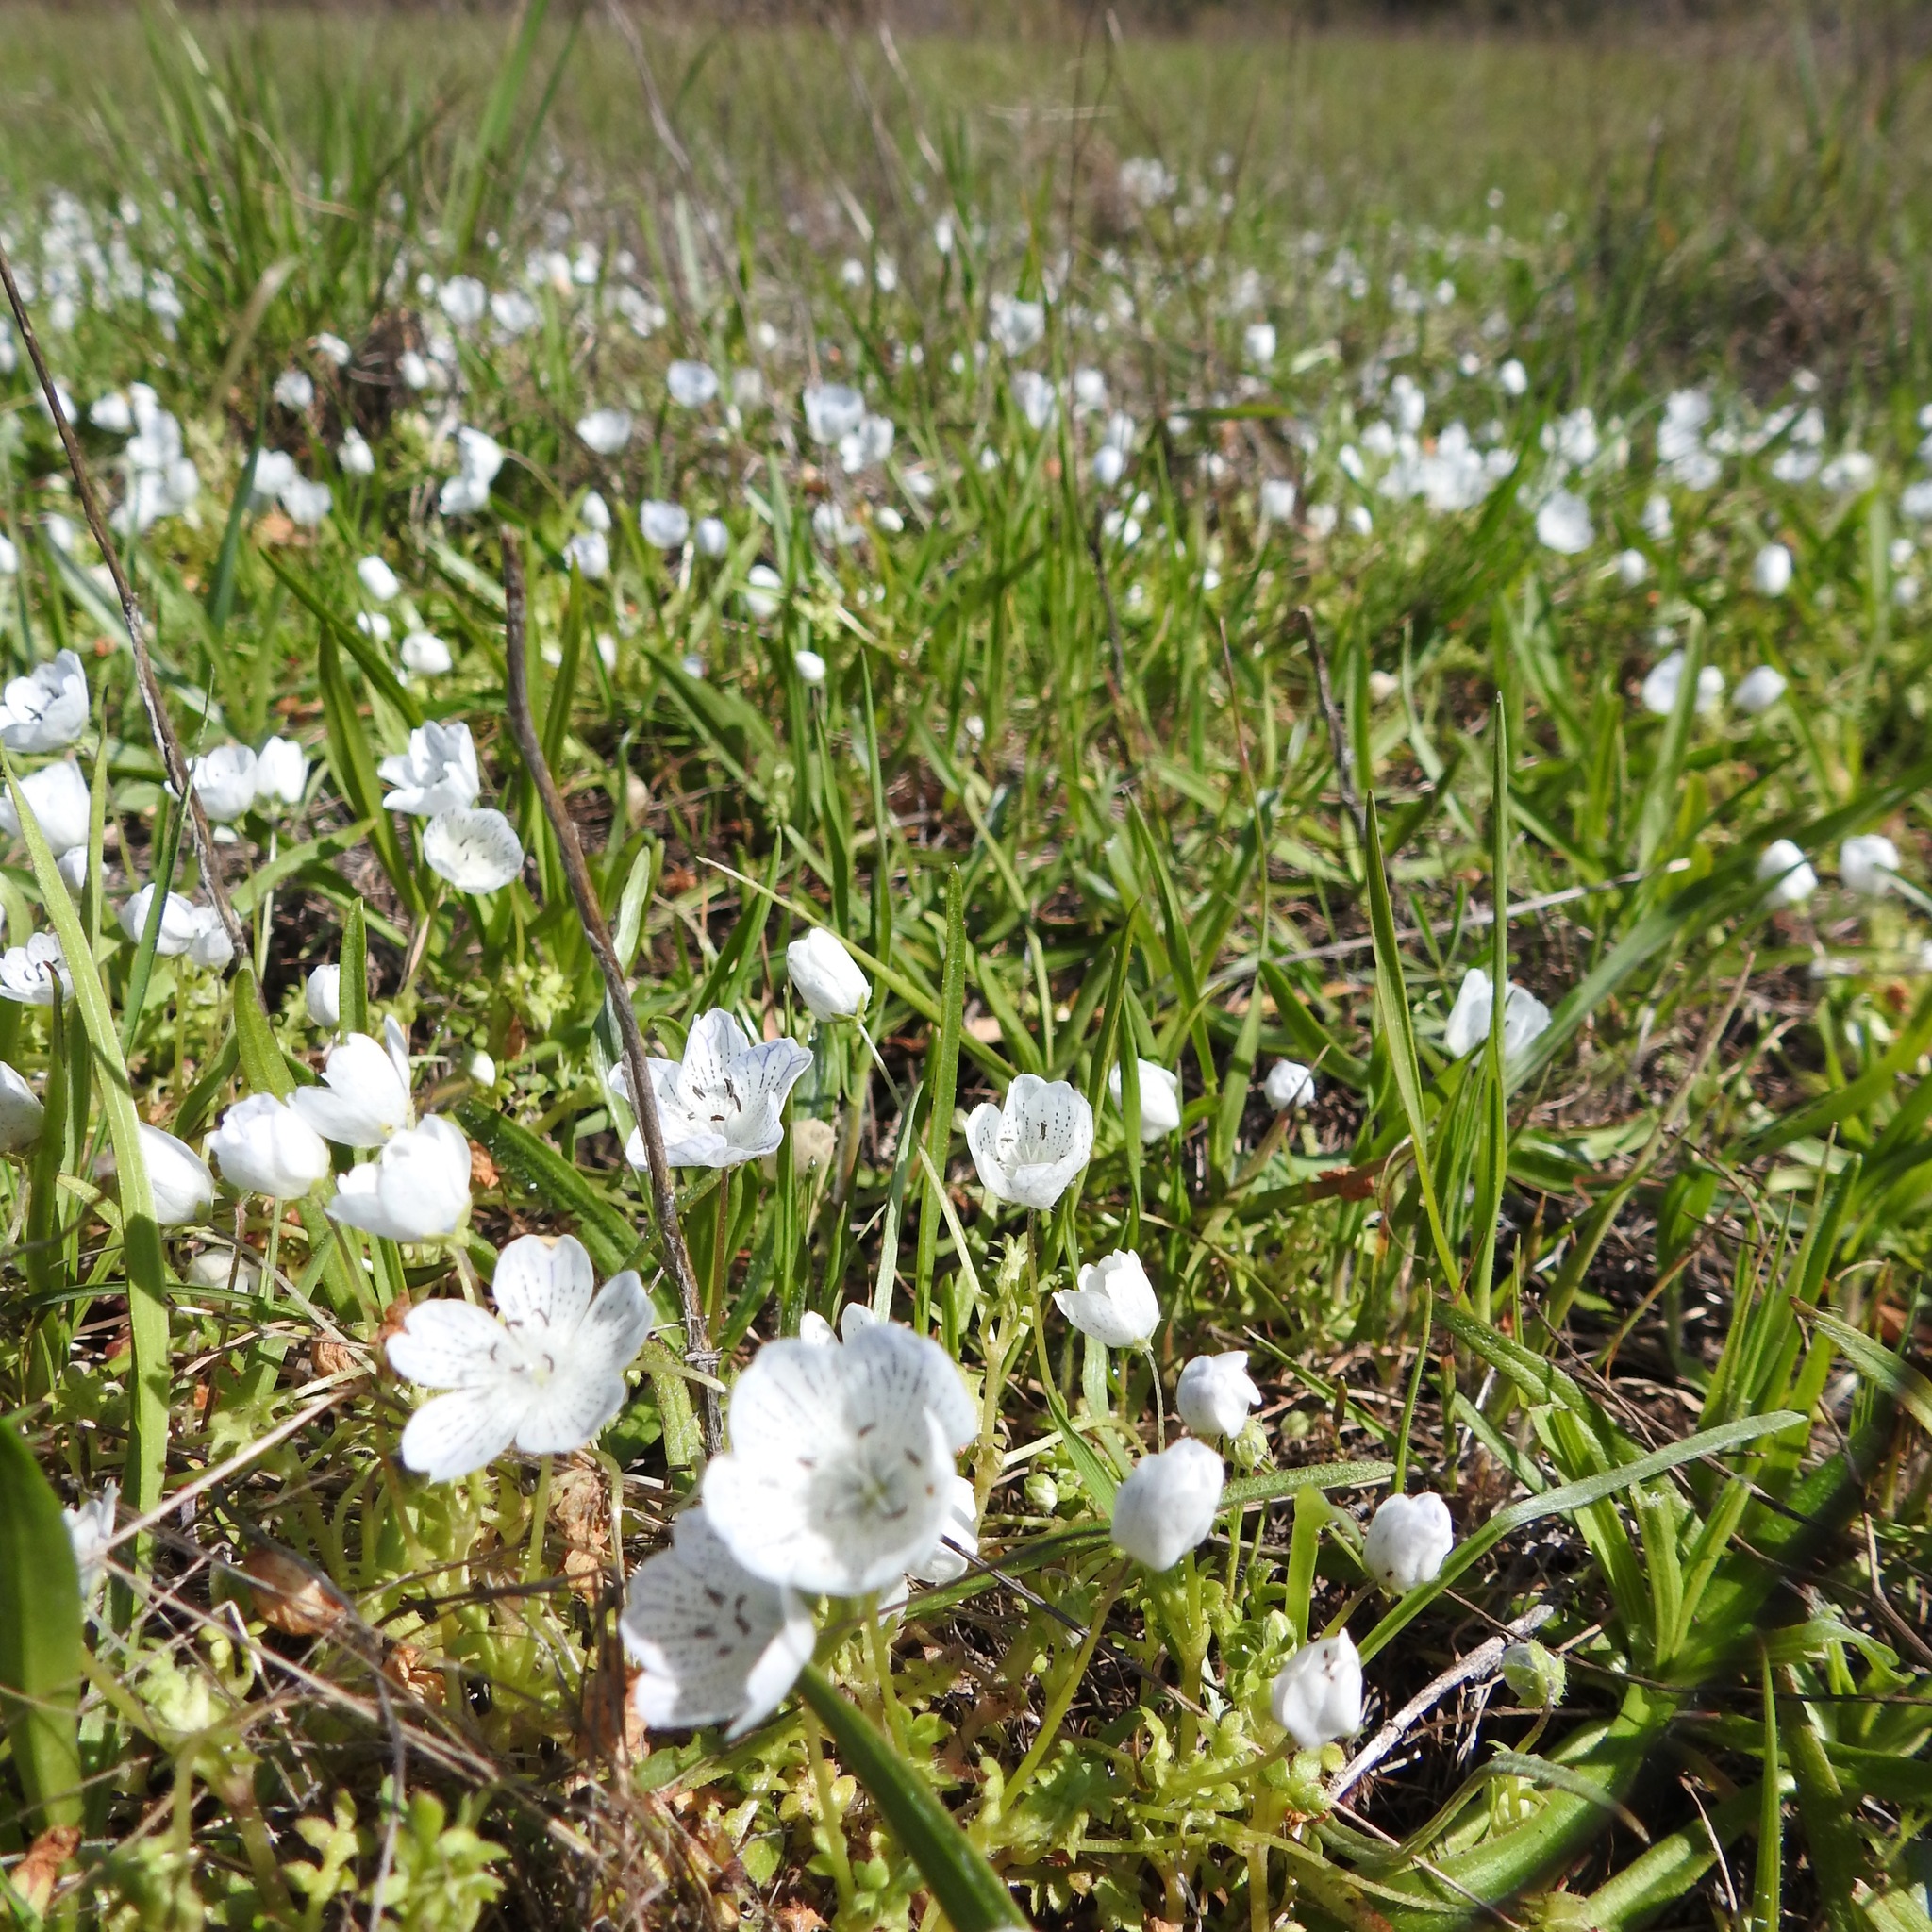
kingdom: Plantae
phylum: Tracheophyta
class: Magnoliopsida
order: Boraginales
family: Hydrophyllaceae
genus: Nemophila
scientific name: Nemophila menziesii
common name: Baby's-blue-eyes
